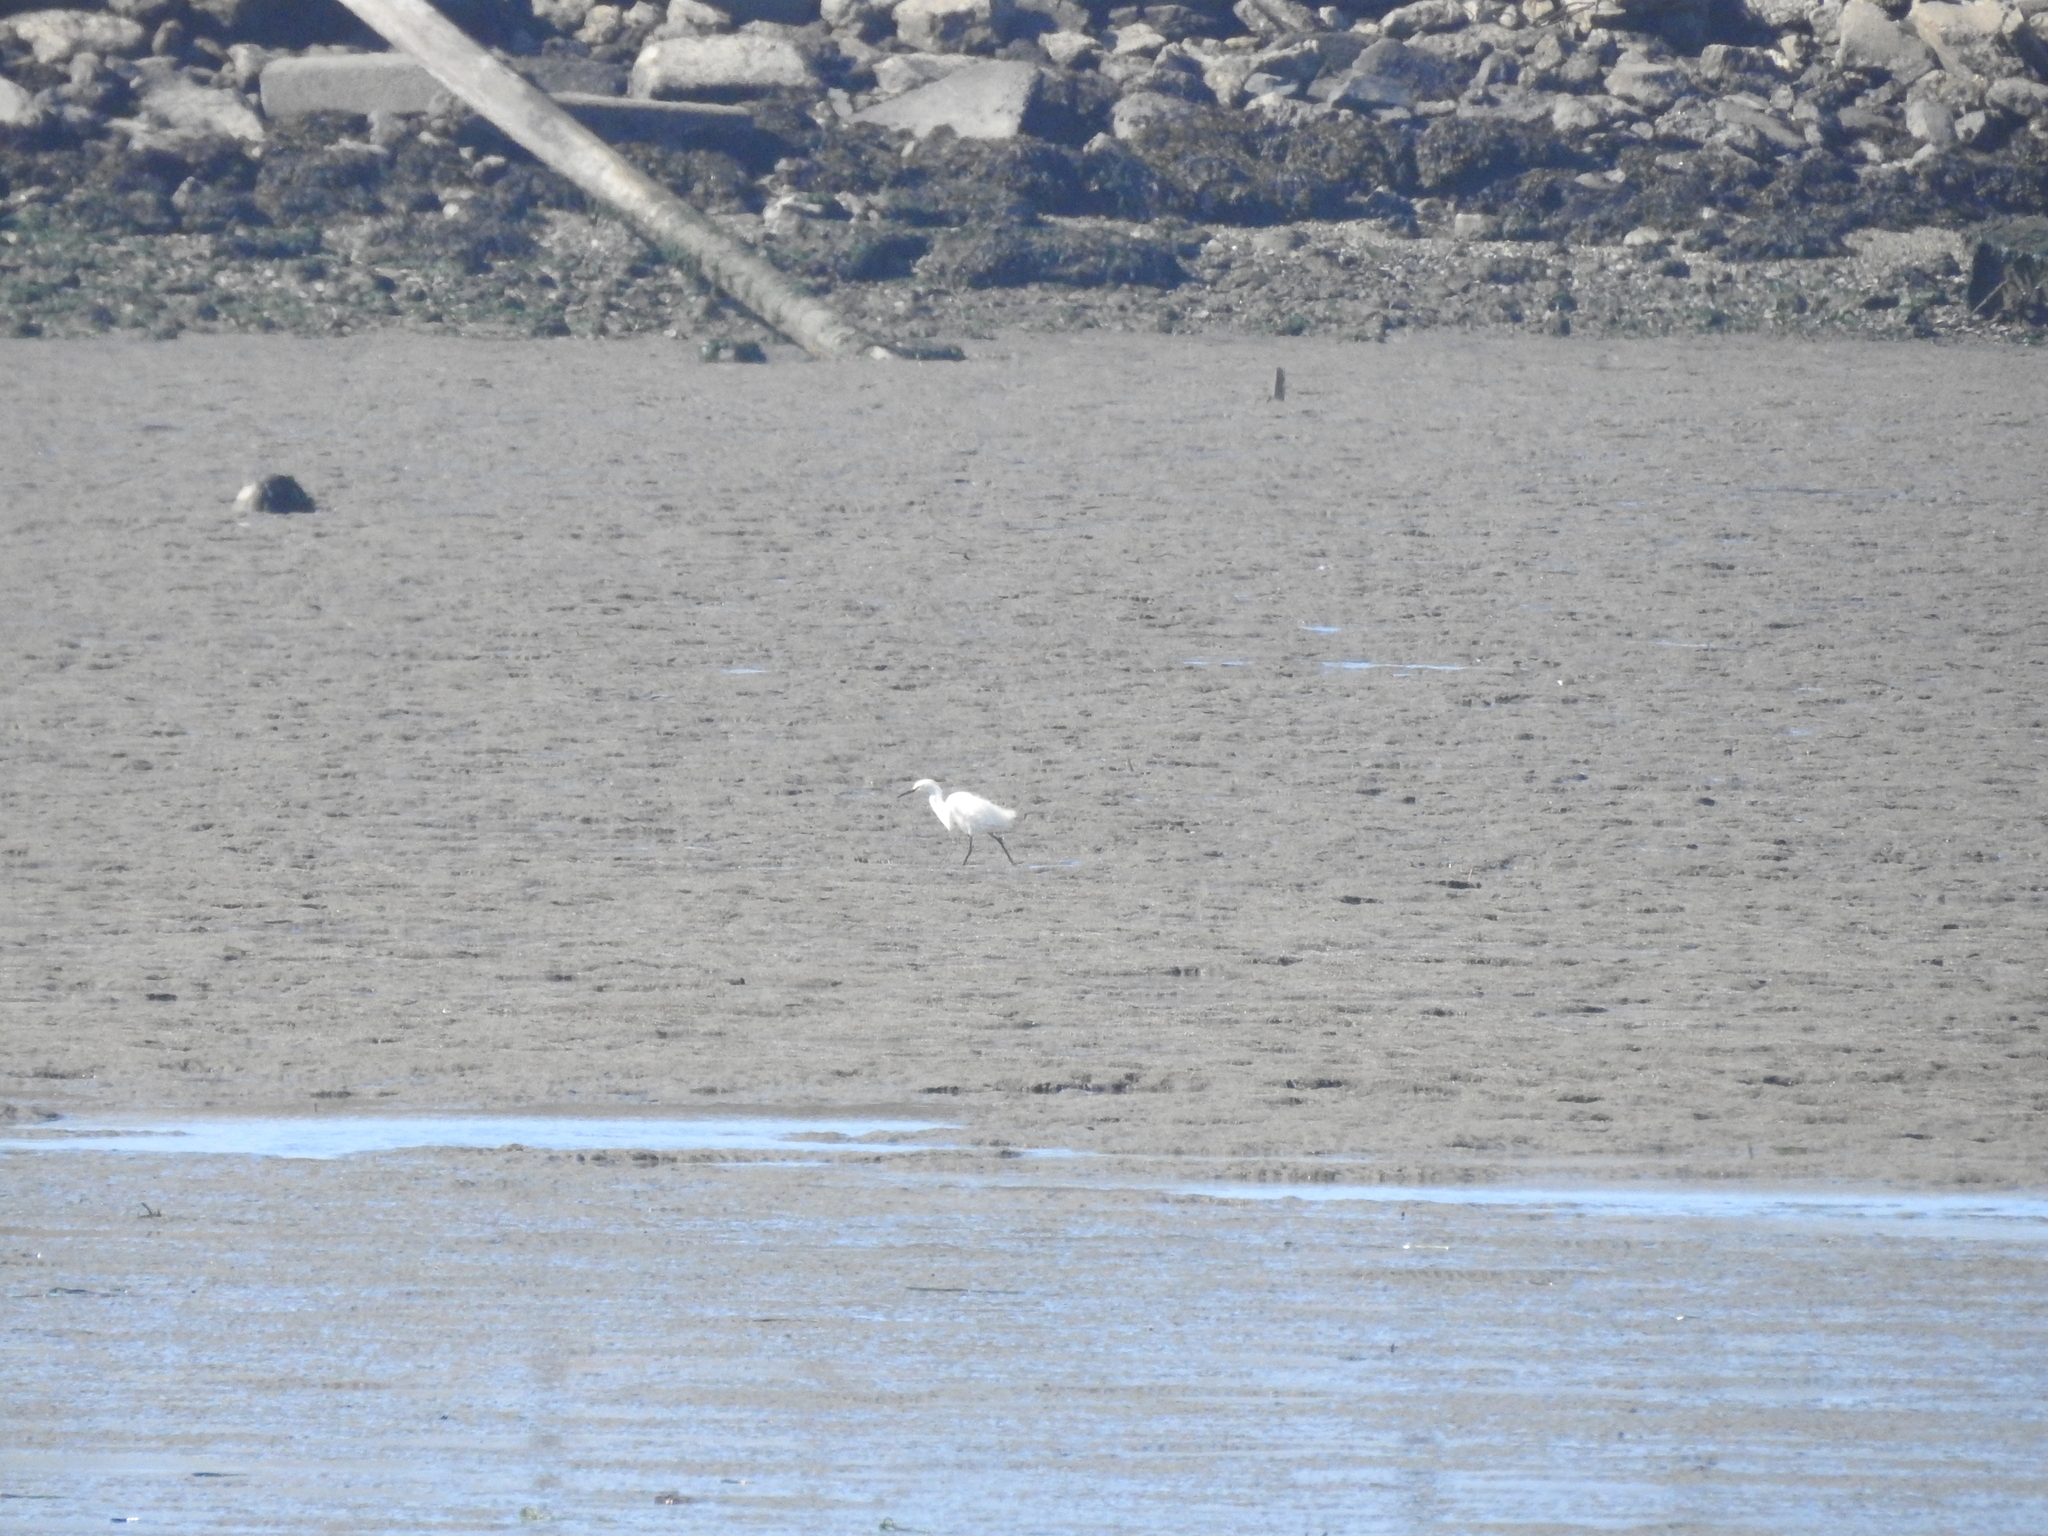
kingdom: Animalia
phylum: Chordata
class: Aves
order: Pelecaniformes
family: Ardeidae
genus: Egretta
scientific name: Egretta thula
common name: Snowy egret
